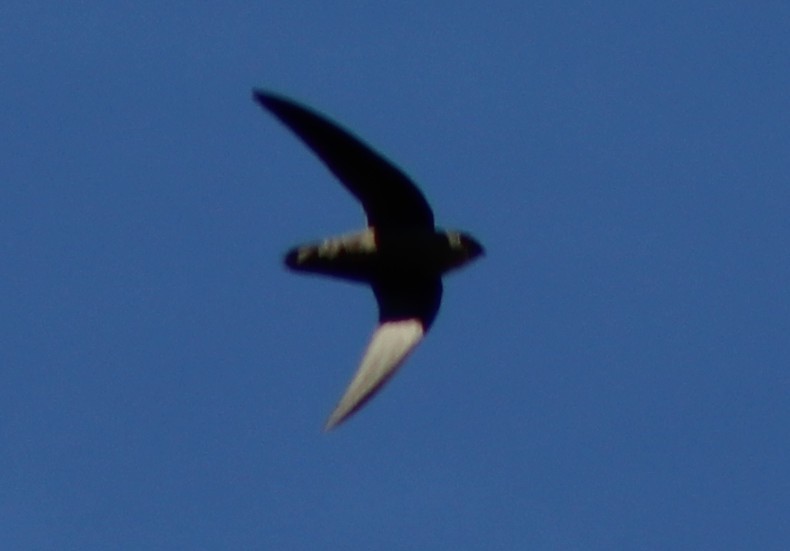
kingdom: Animalia
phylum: Chordata
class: Aves
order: Apodiformes
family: Apodidae
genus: Chaetura
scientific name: Chaetura pelagica
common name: Chimney swift
